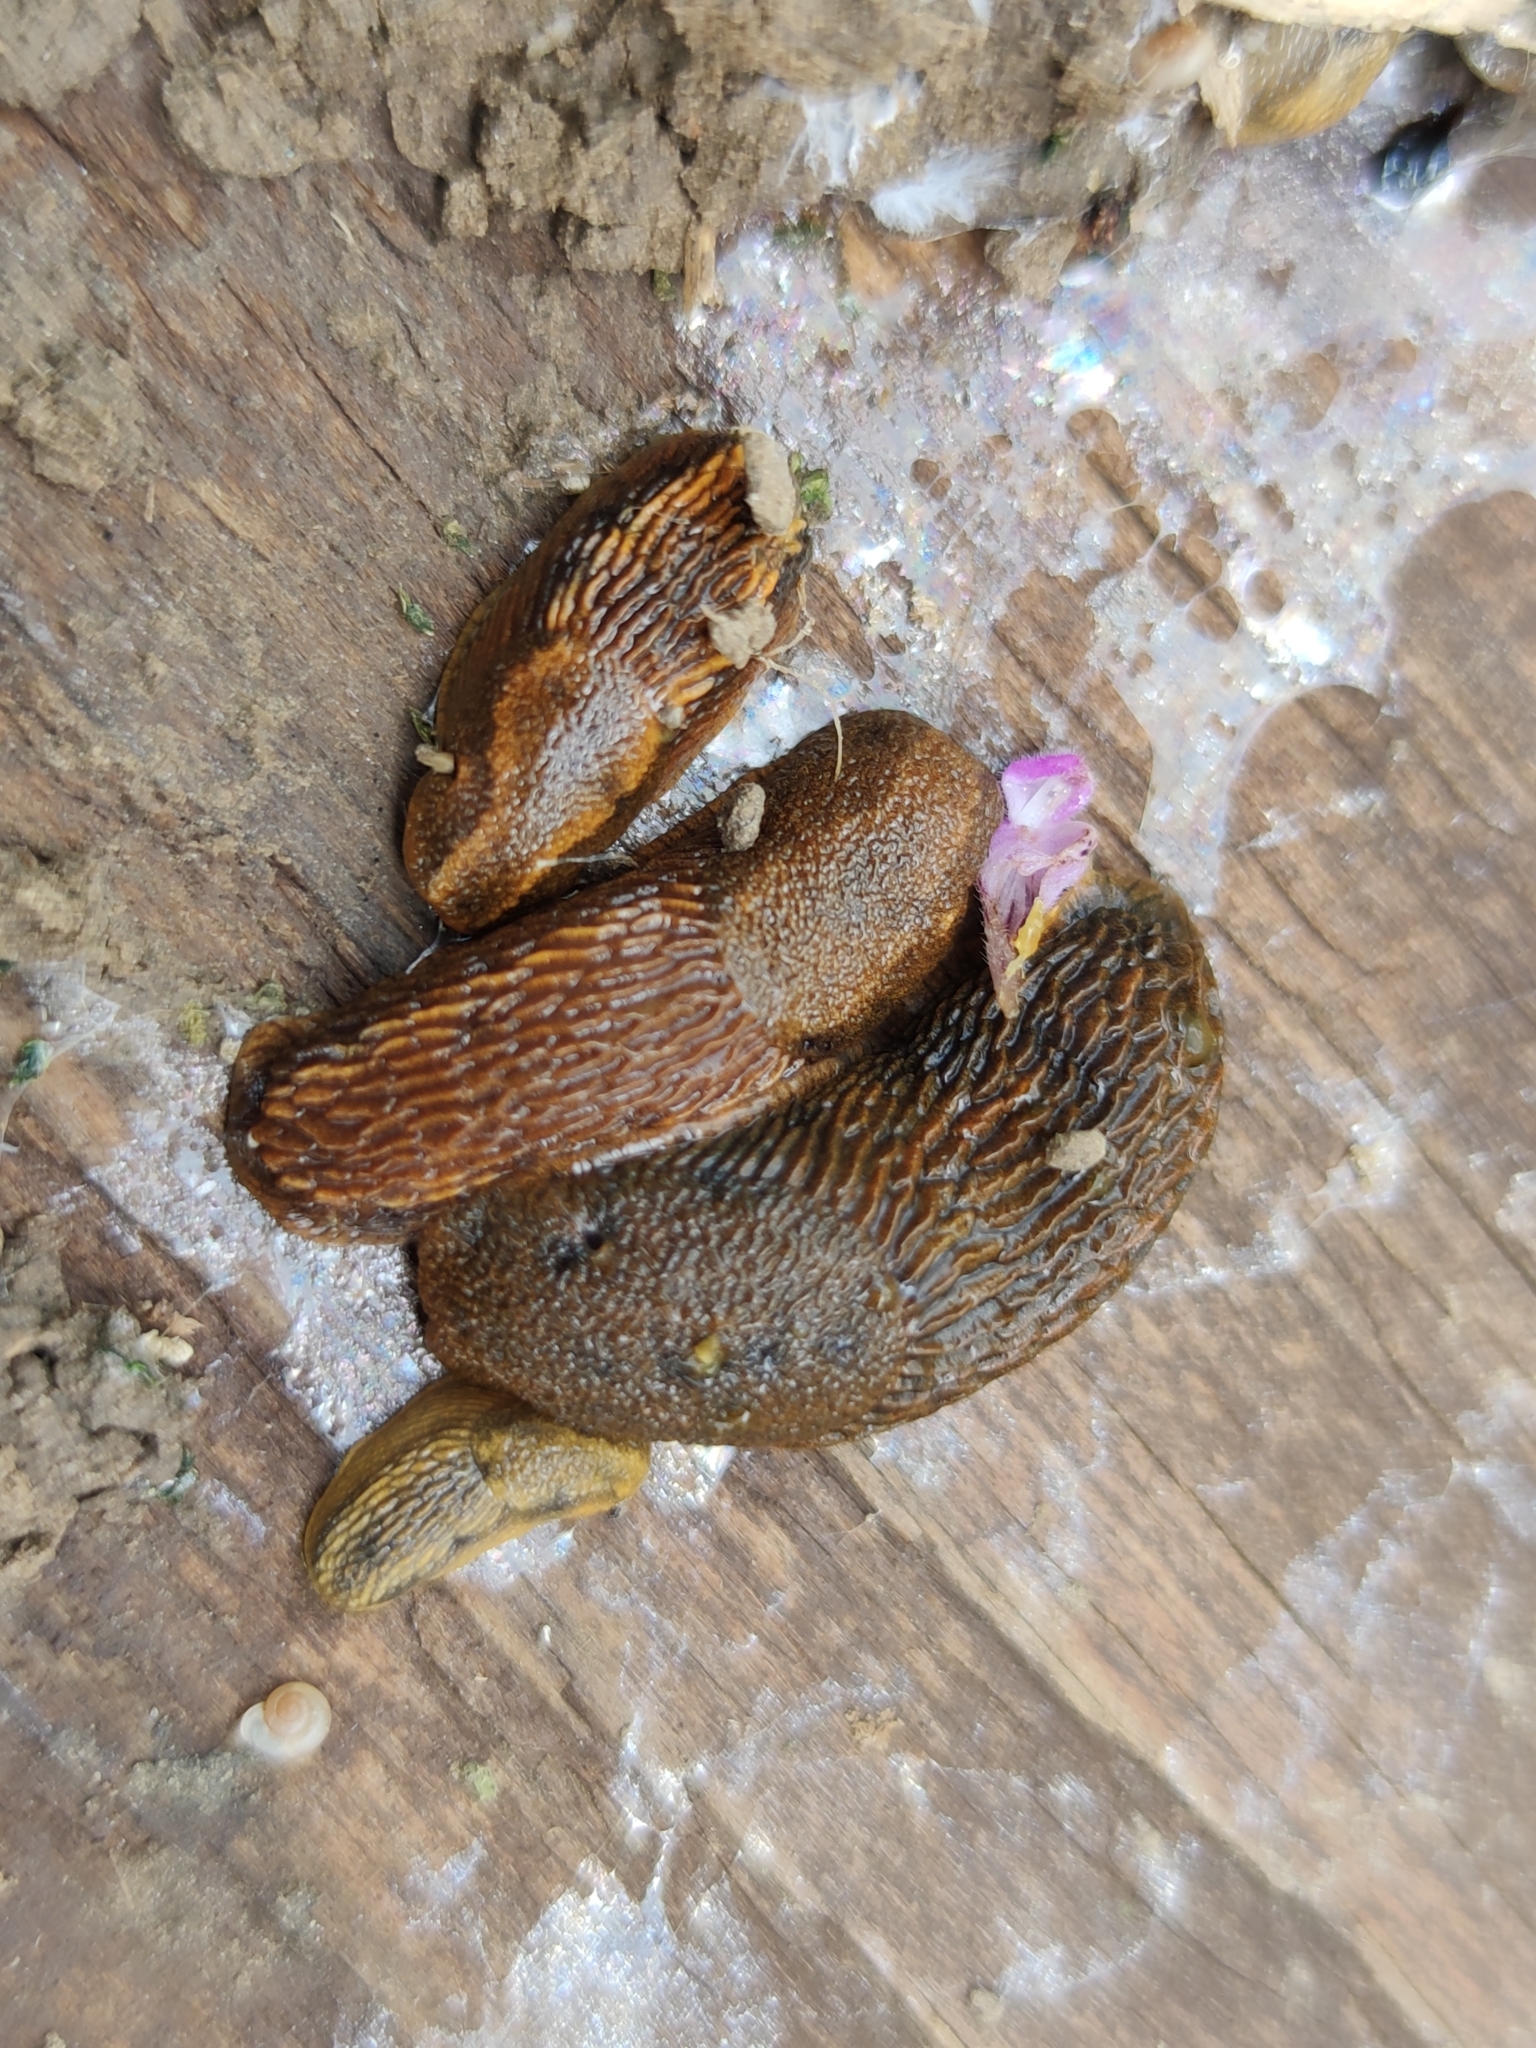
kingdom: Animalia
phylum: Mollusca
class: Gastropoda
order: Stylommatophora
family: Arionidae
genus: Arion
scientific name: Arion vulgaris
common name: Lusitanian slug
